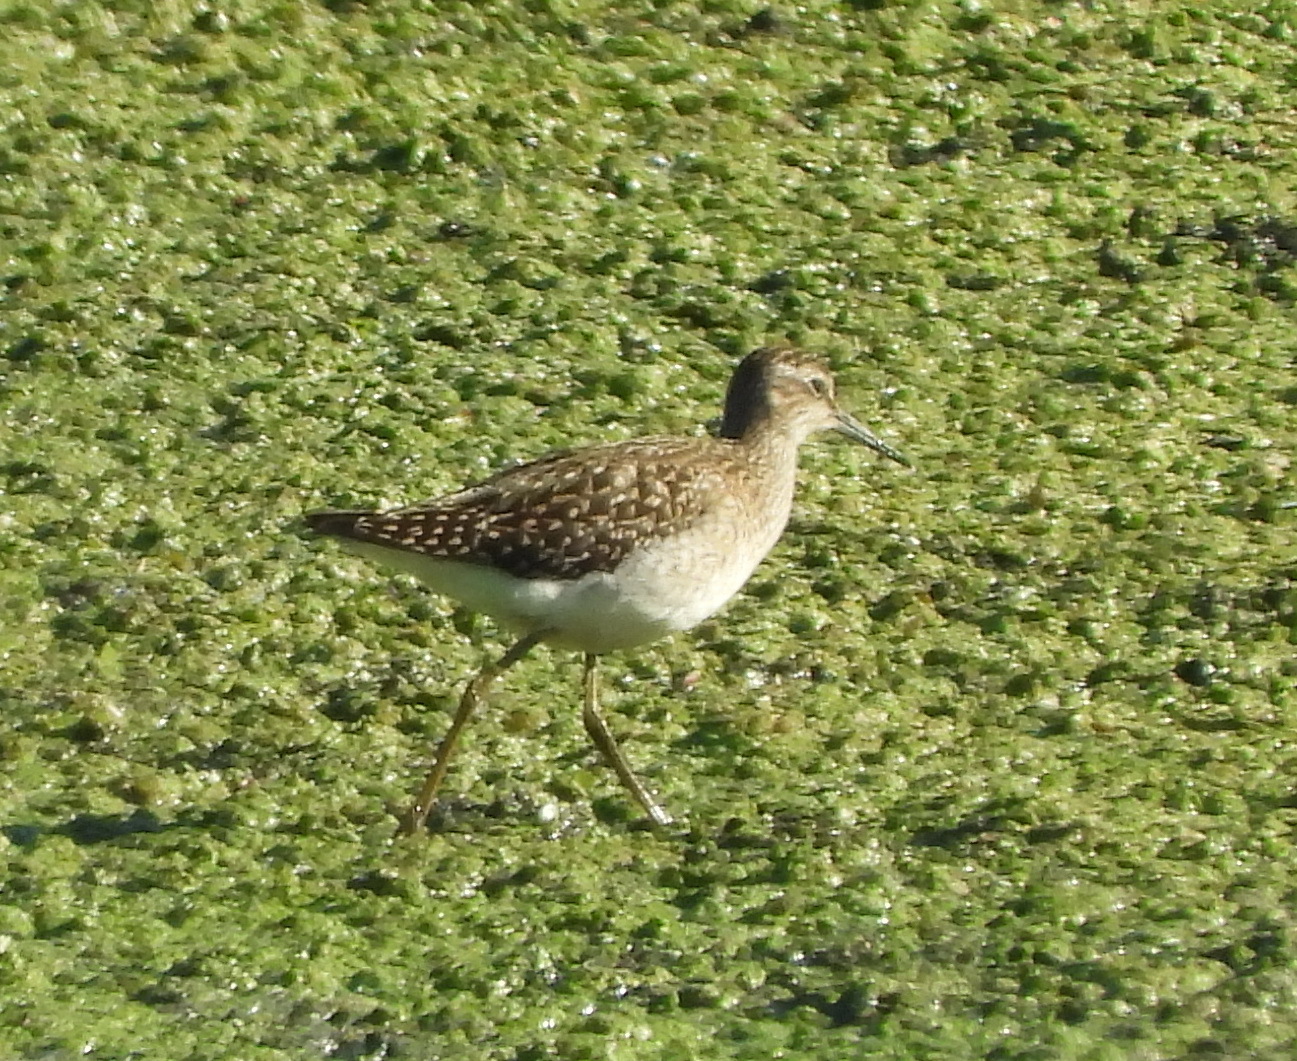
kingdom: Animalia
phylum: Chordata
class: Aves
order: Charadriiformes
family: Scolopacidae
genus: Tringa
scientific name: Tringa glareola
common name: Wood sandpiper
